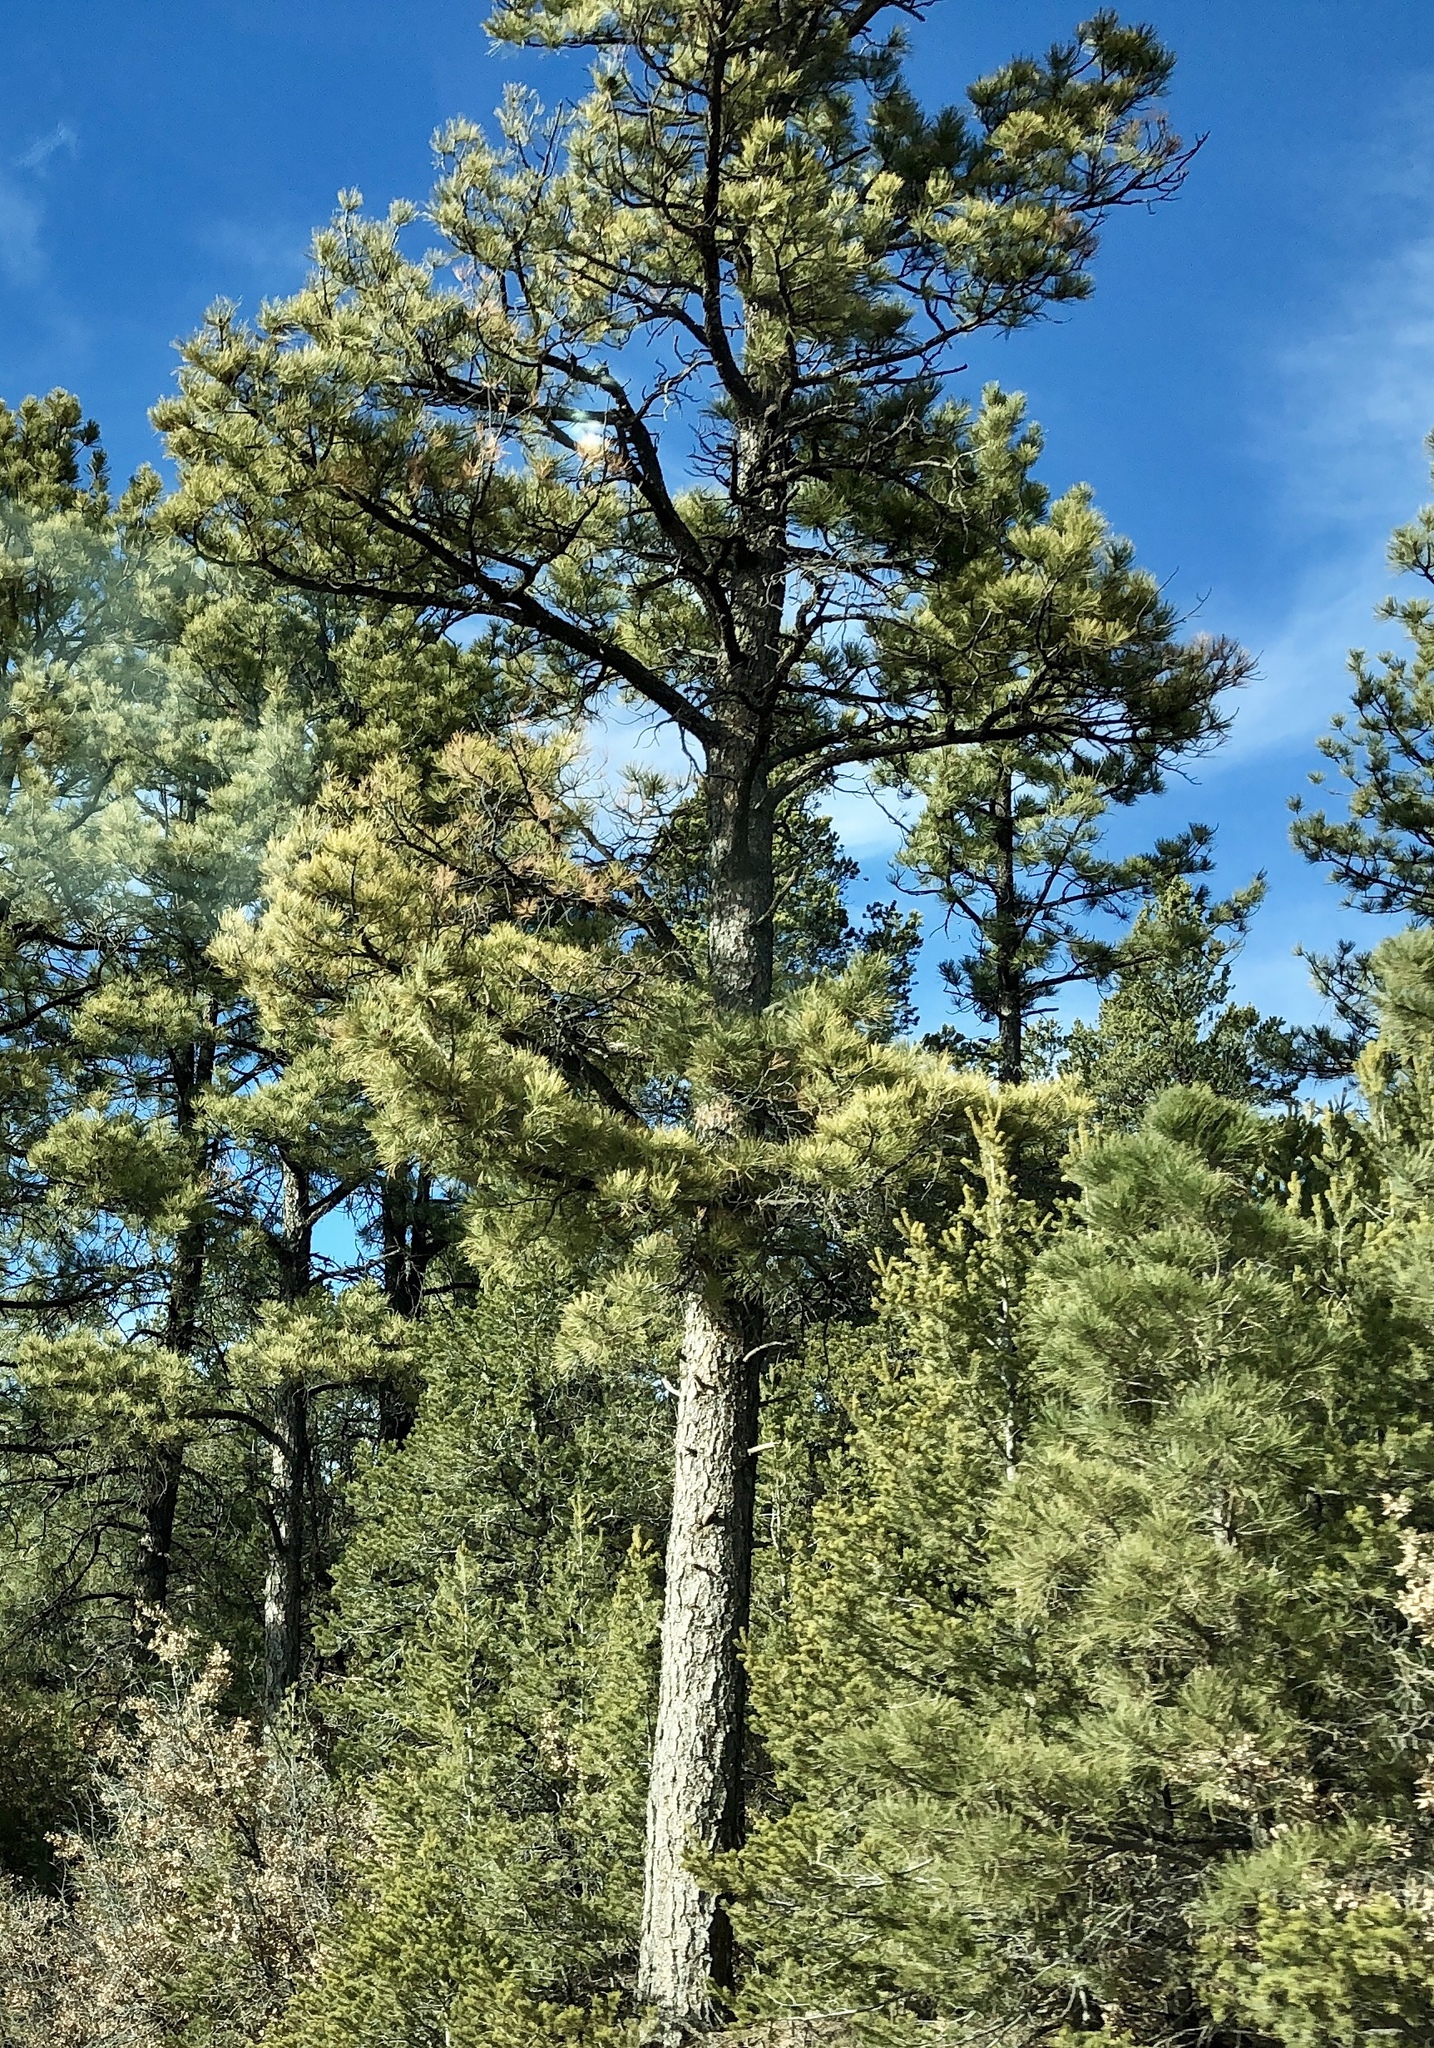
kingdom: Plantae
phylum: Tracheophyta
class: Pinopsida
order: Pinales
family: Pinaceae
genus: Pinus
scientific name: Pinus ponderosa
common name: Western yellow-pine
